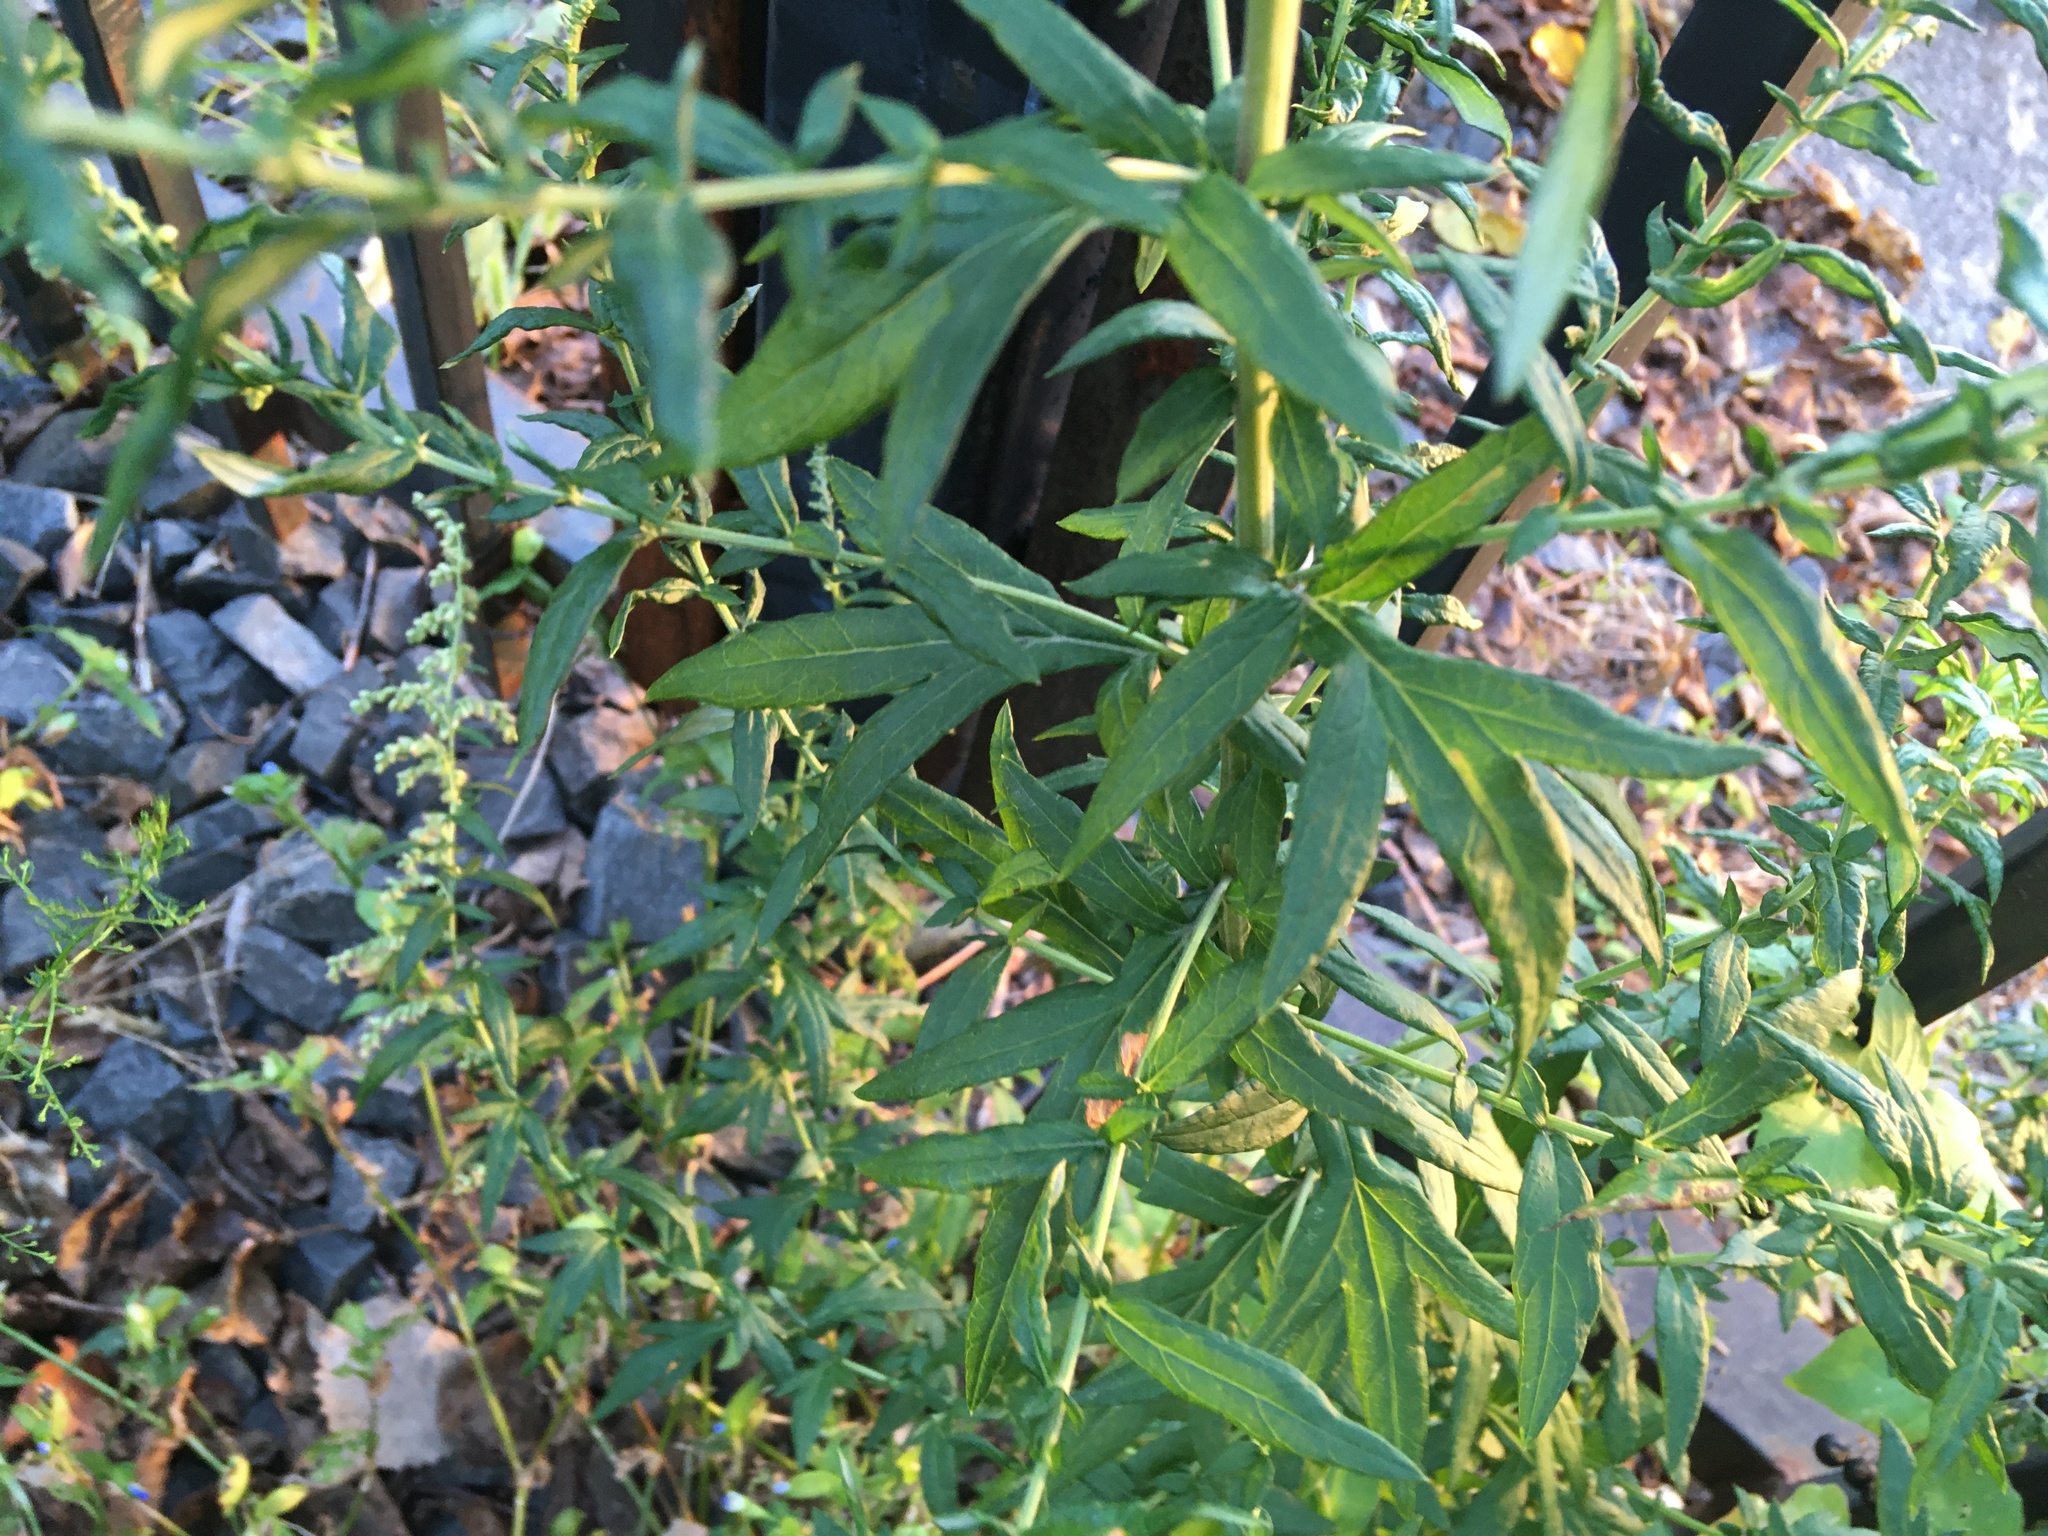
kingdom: Plantae
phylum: Tracheophyta
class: Magnoliopsida
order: Asterales
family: Asteraceae
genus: Artemisia
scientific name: Artemisia vulgaris
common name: Mugwort
